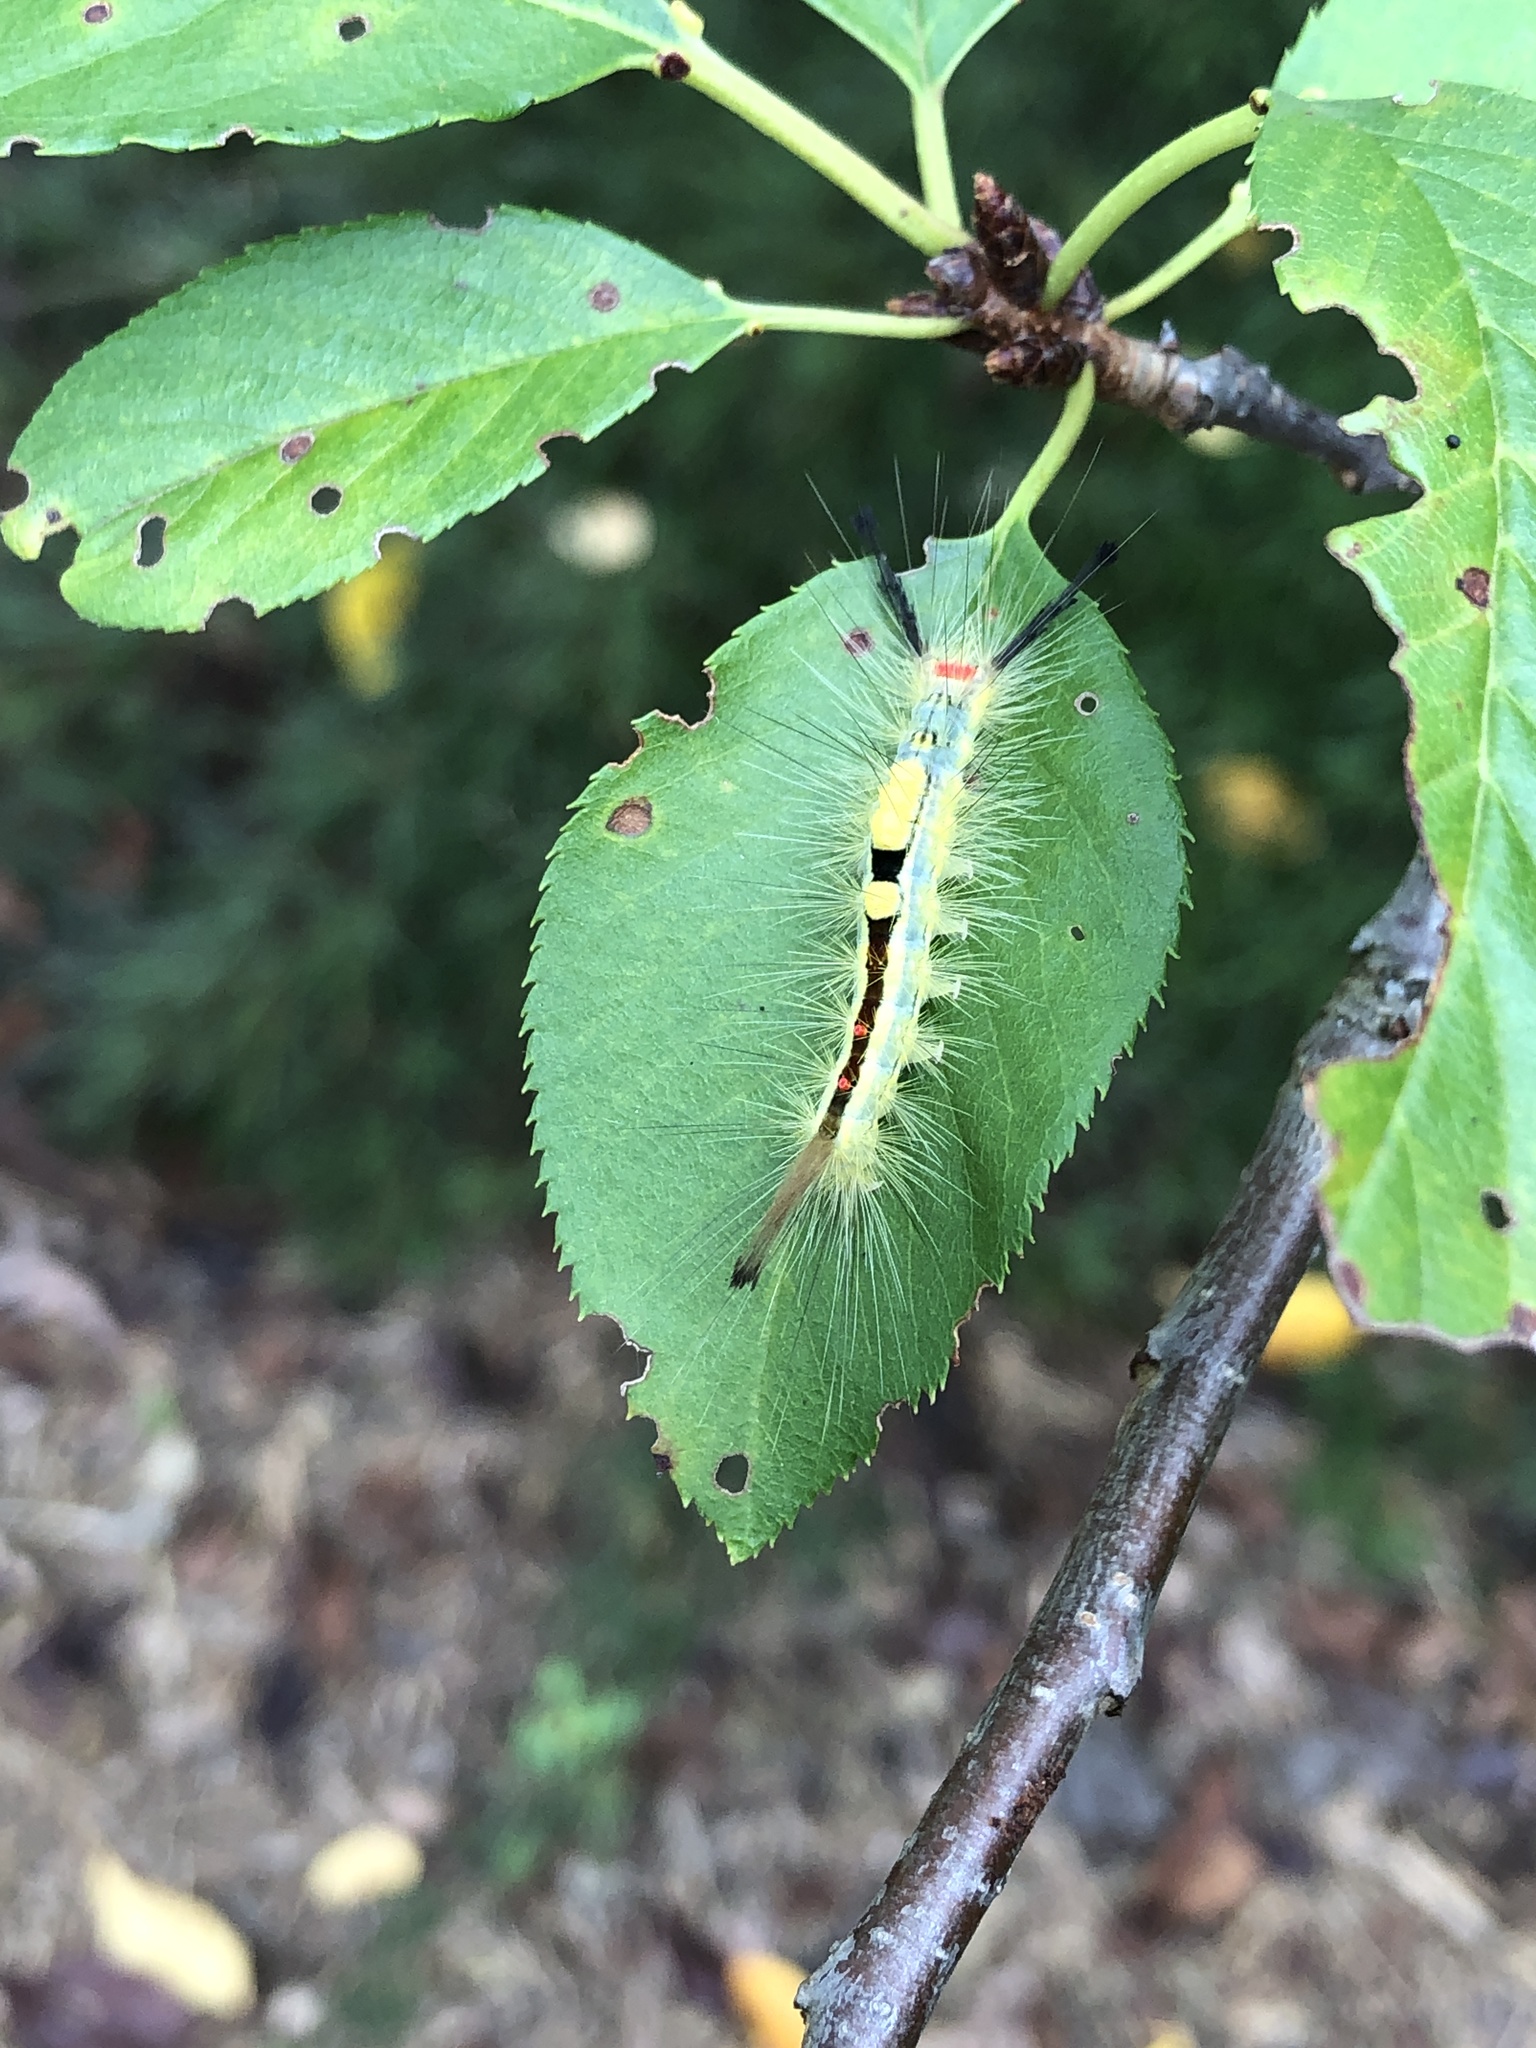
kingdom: Animalia
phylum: Arthropoda
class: Insecta
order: Lepidoptera
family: Erebidae
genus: Orgyia
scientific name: Orgyia leucostigma
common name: White-marked tussock moth
